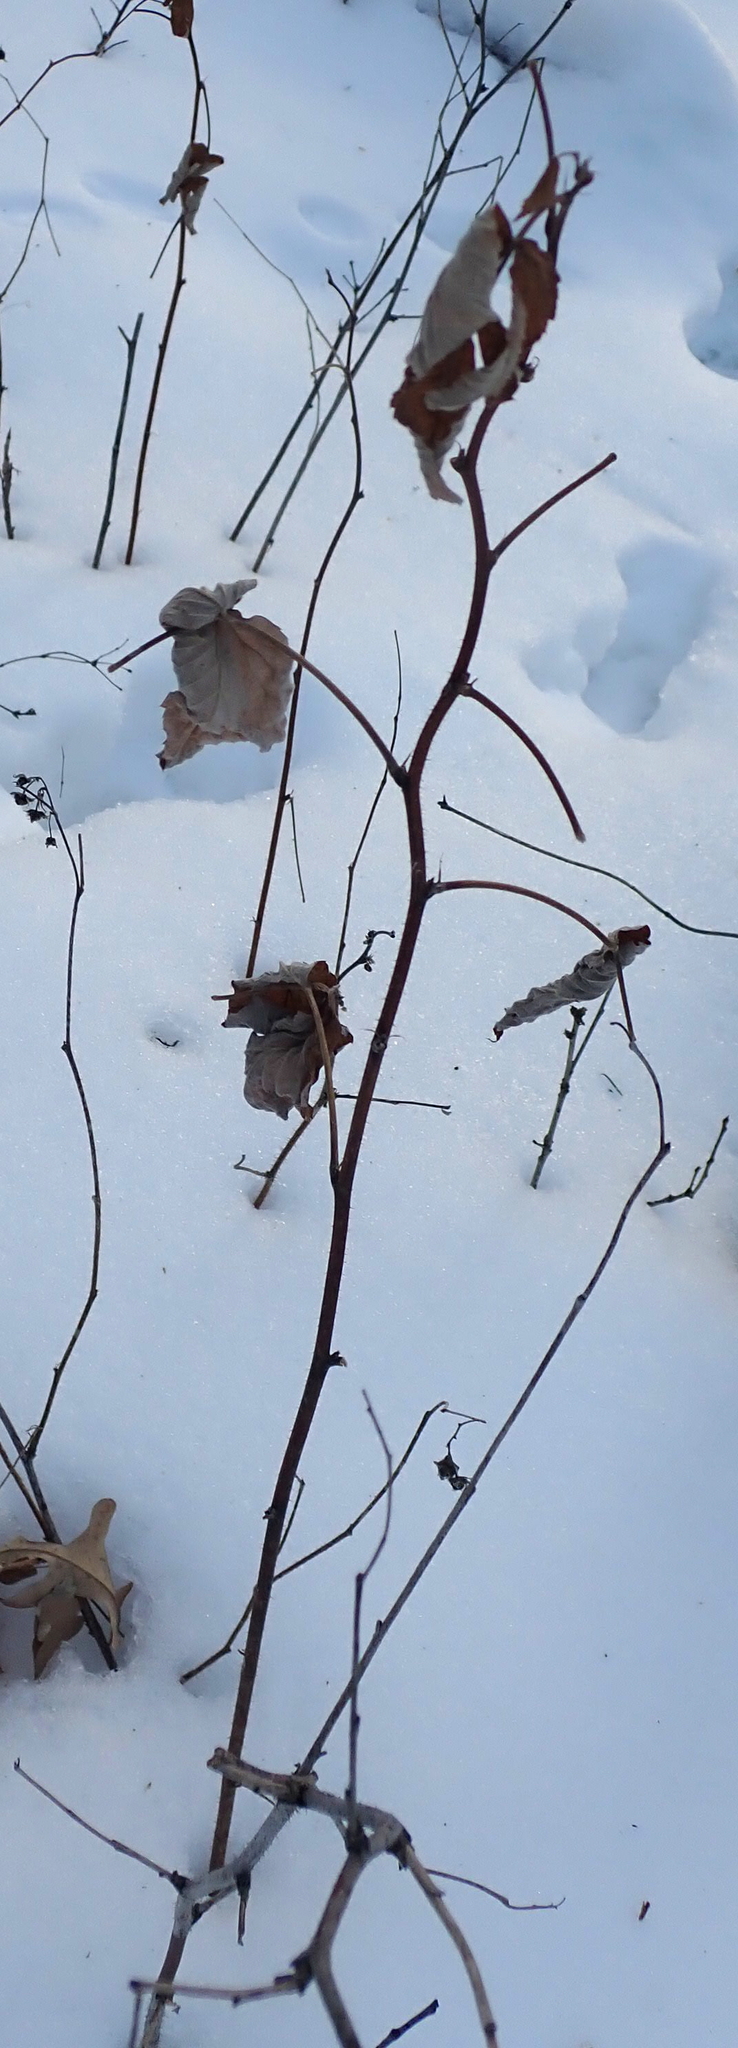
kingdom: Plantae
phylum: Tracheophyta
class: Magnoliopsida
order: Rosales
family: Rosaceae
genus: Rubus
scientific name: Rubus idaeus
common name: Raspberry
